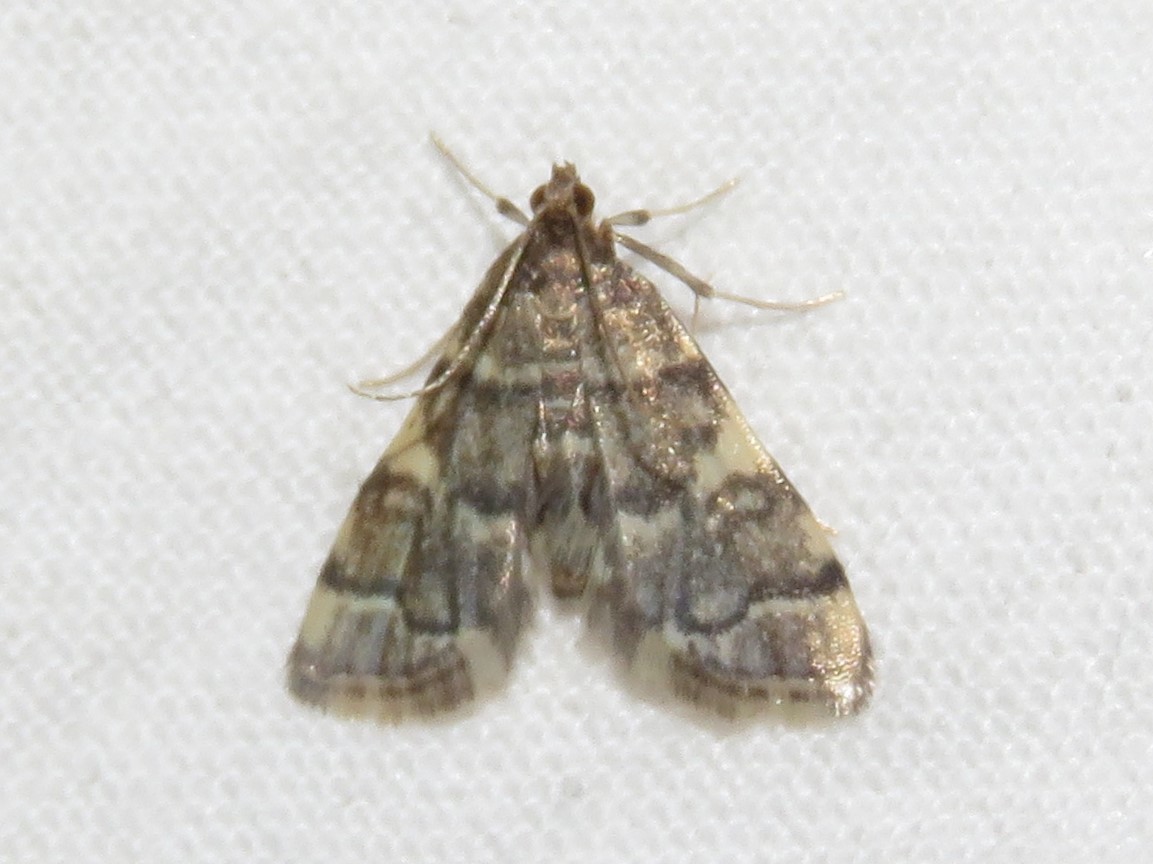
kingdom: Animalia
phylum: Arthropoda
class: Insecta
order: Lepidoptera
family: Crambidae
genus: Anageshna
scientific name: Anageshna primordialis
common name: Yellow-spotted webworm moth
